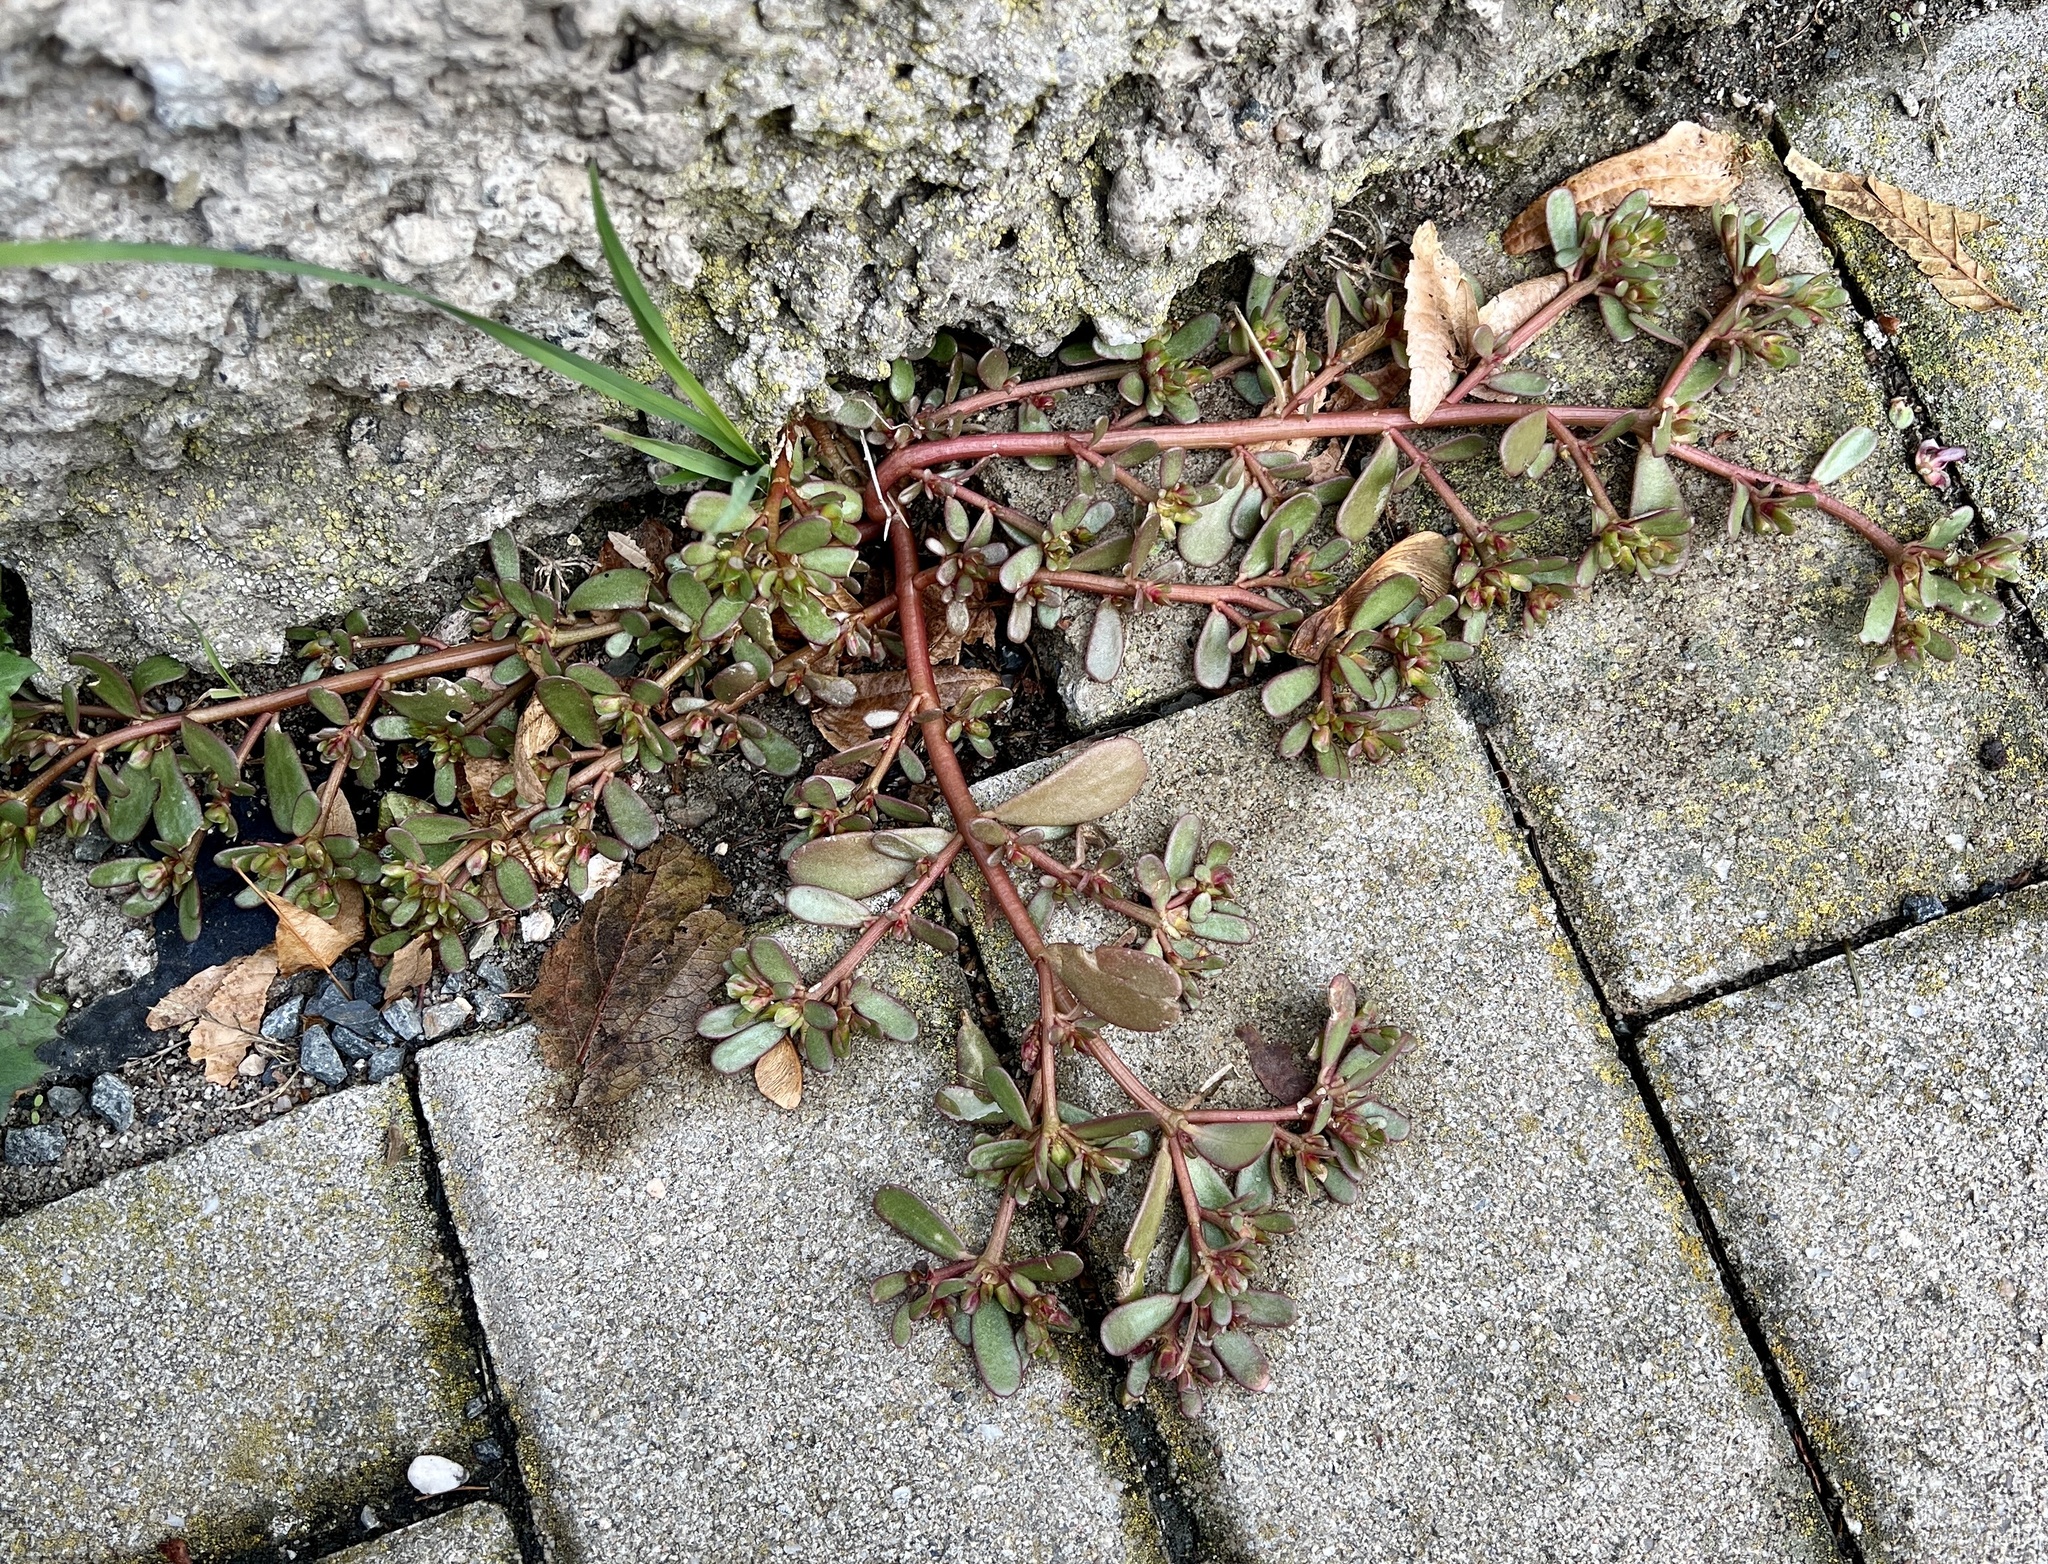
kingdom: Plantae
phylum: Tracheophyta
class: Magnoliopsida
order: Caryophyllales
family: Portulacaceae
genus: Portulaca
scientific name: Portulaca oleracea
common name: Common purslane
